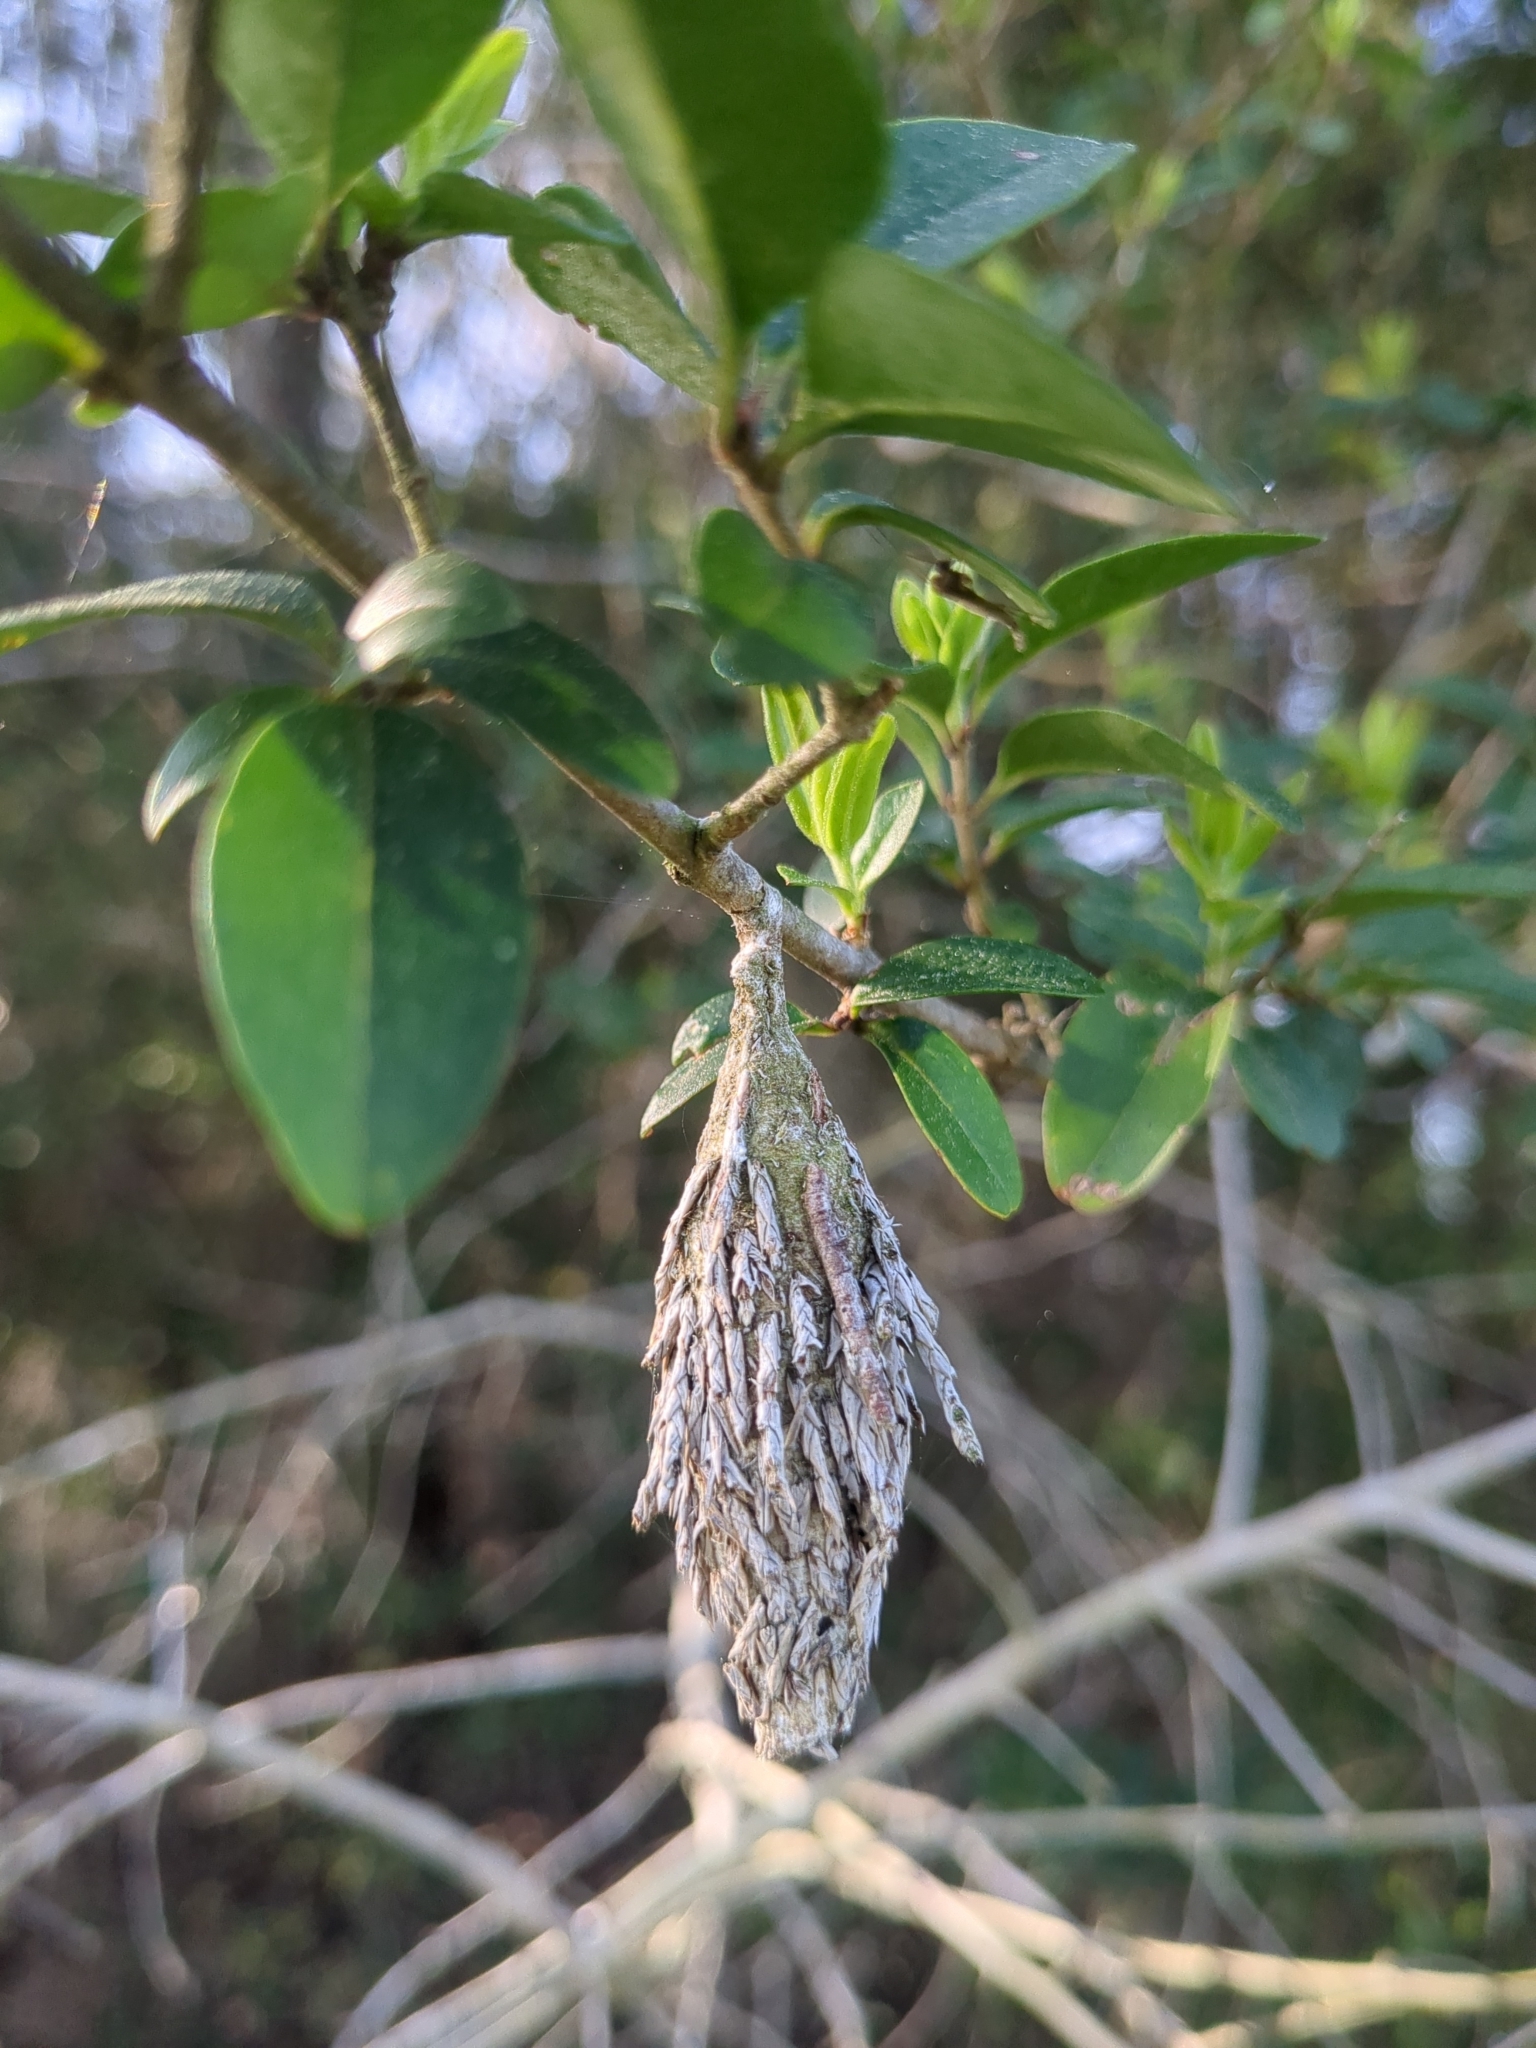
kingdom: Animalia
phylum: Arthropoda
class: Insecta
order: Lepidoptera
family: Psychidae
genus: Thyridopteryx
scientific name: Thyridopteryx ephemeraeformis
